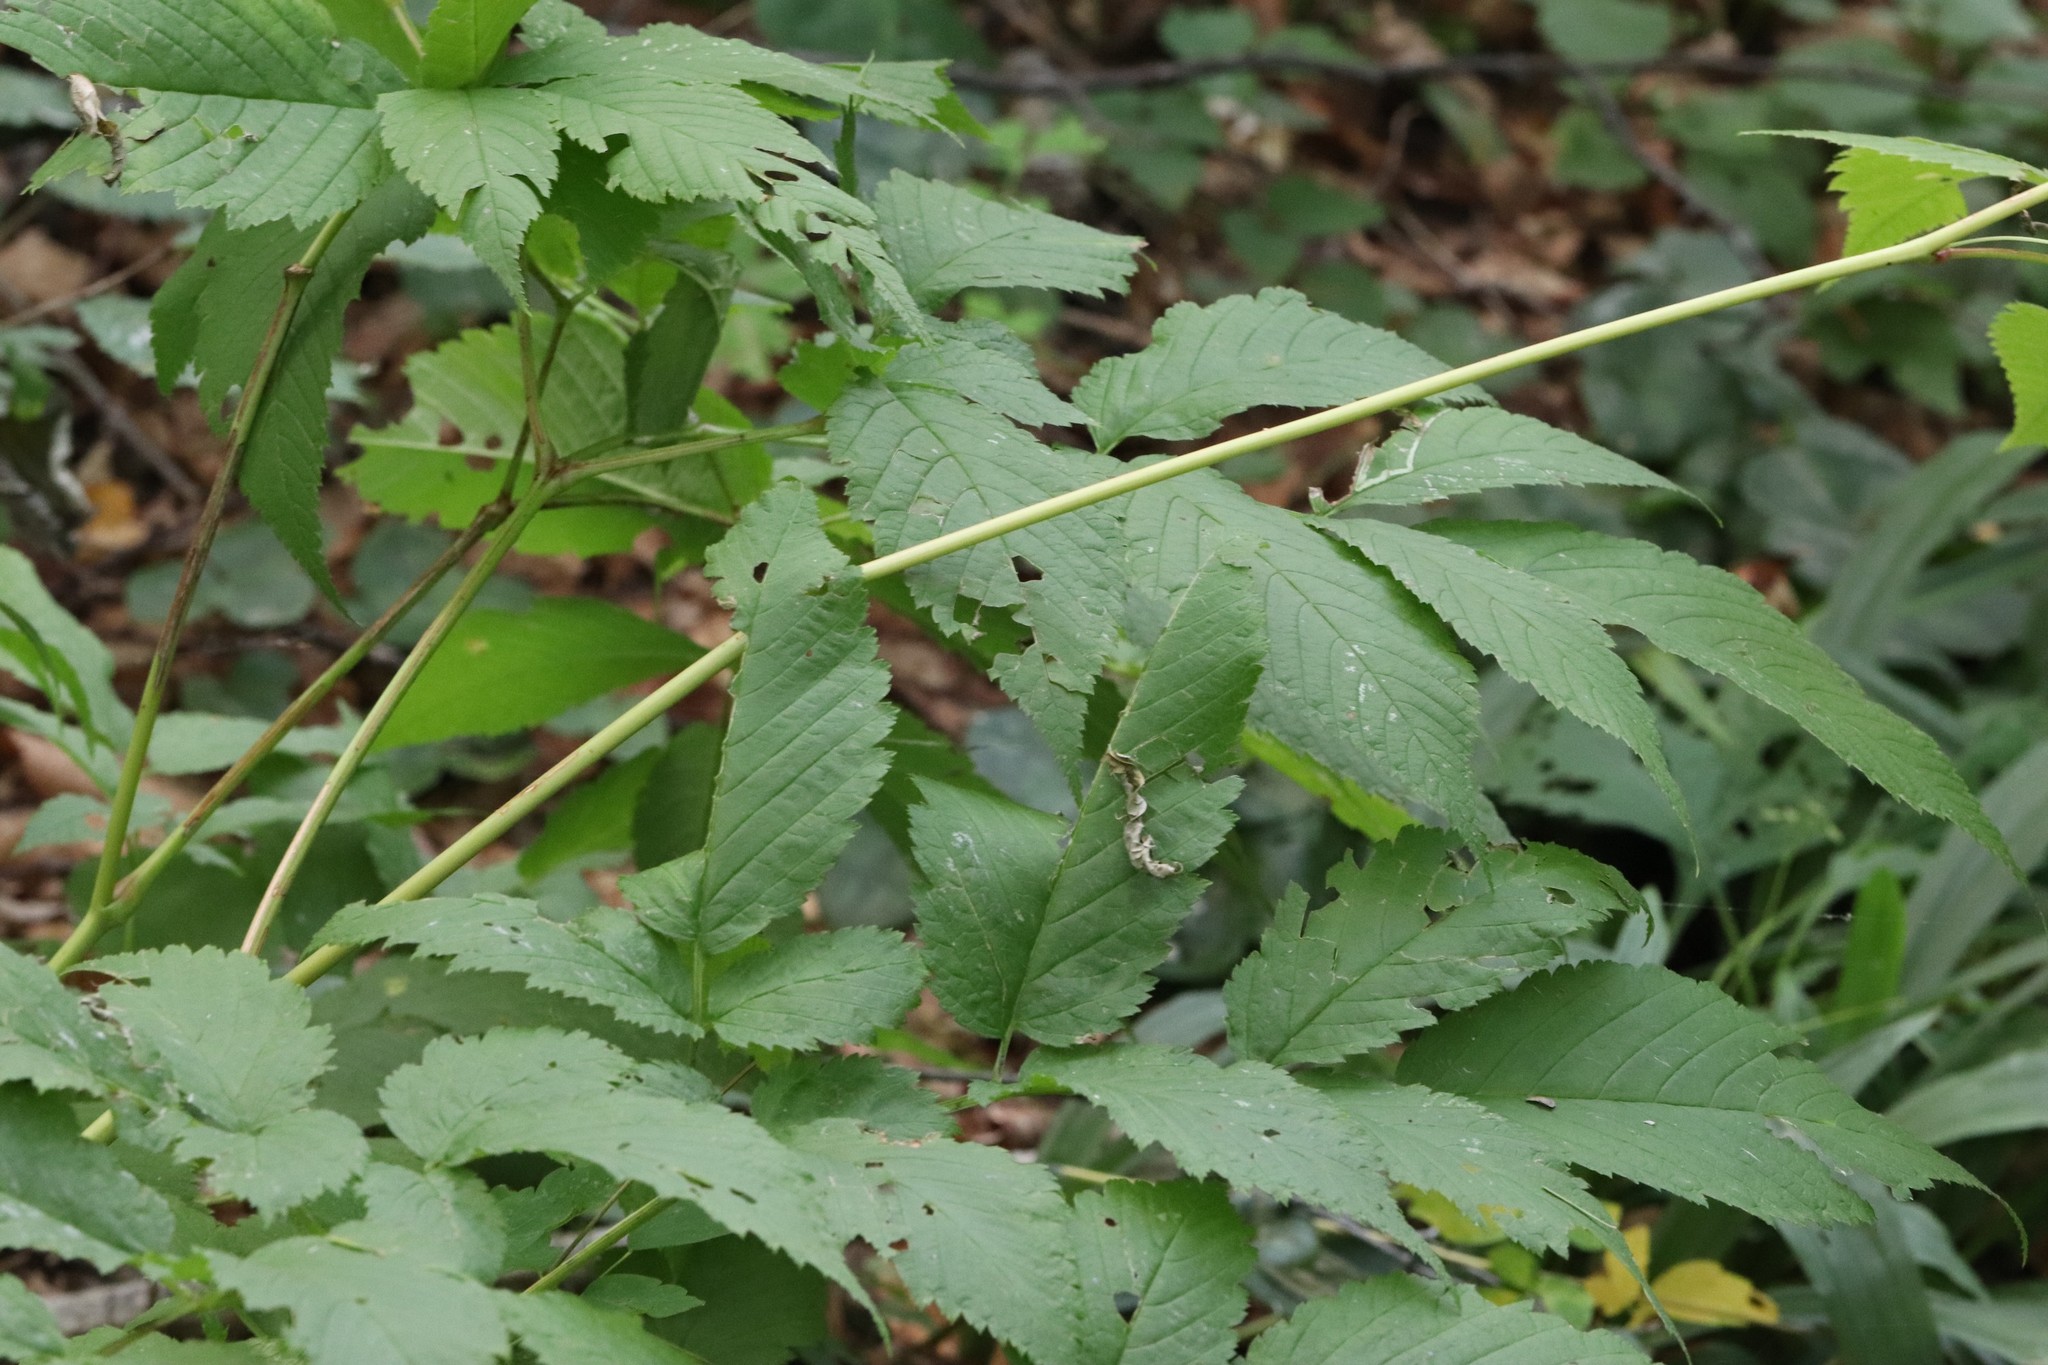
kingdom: Plantae
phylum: Tracheophyta
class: Magnoliopsida
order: Rosales
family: Rosaceae
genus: Aruncus
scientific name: Aruncus dioicus
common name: Buck's-beard
